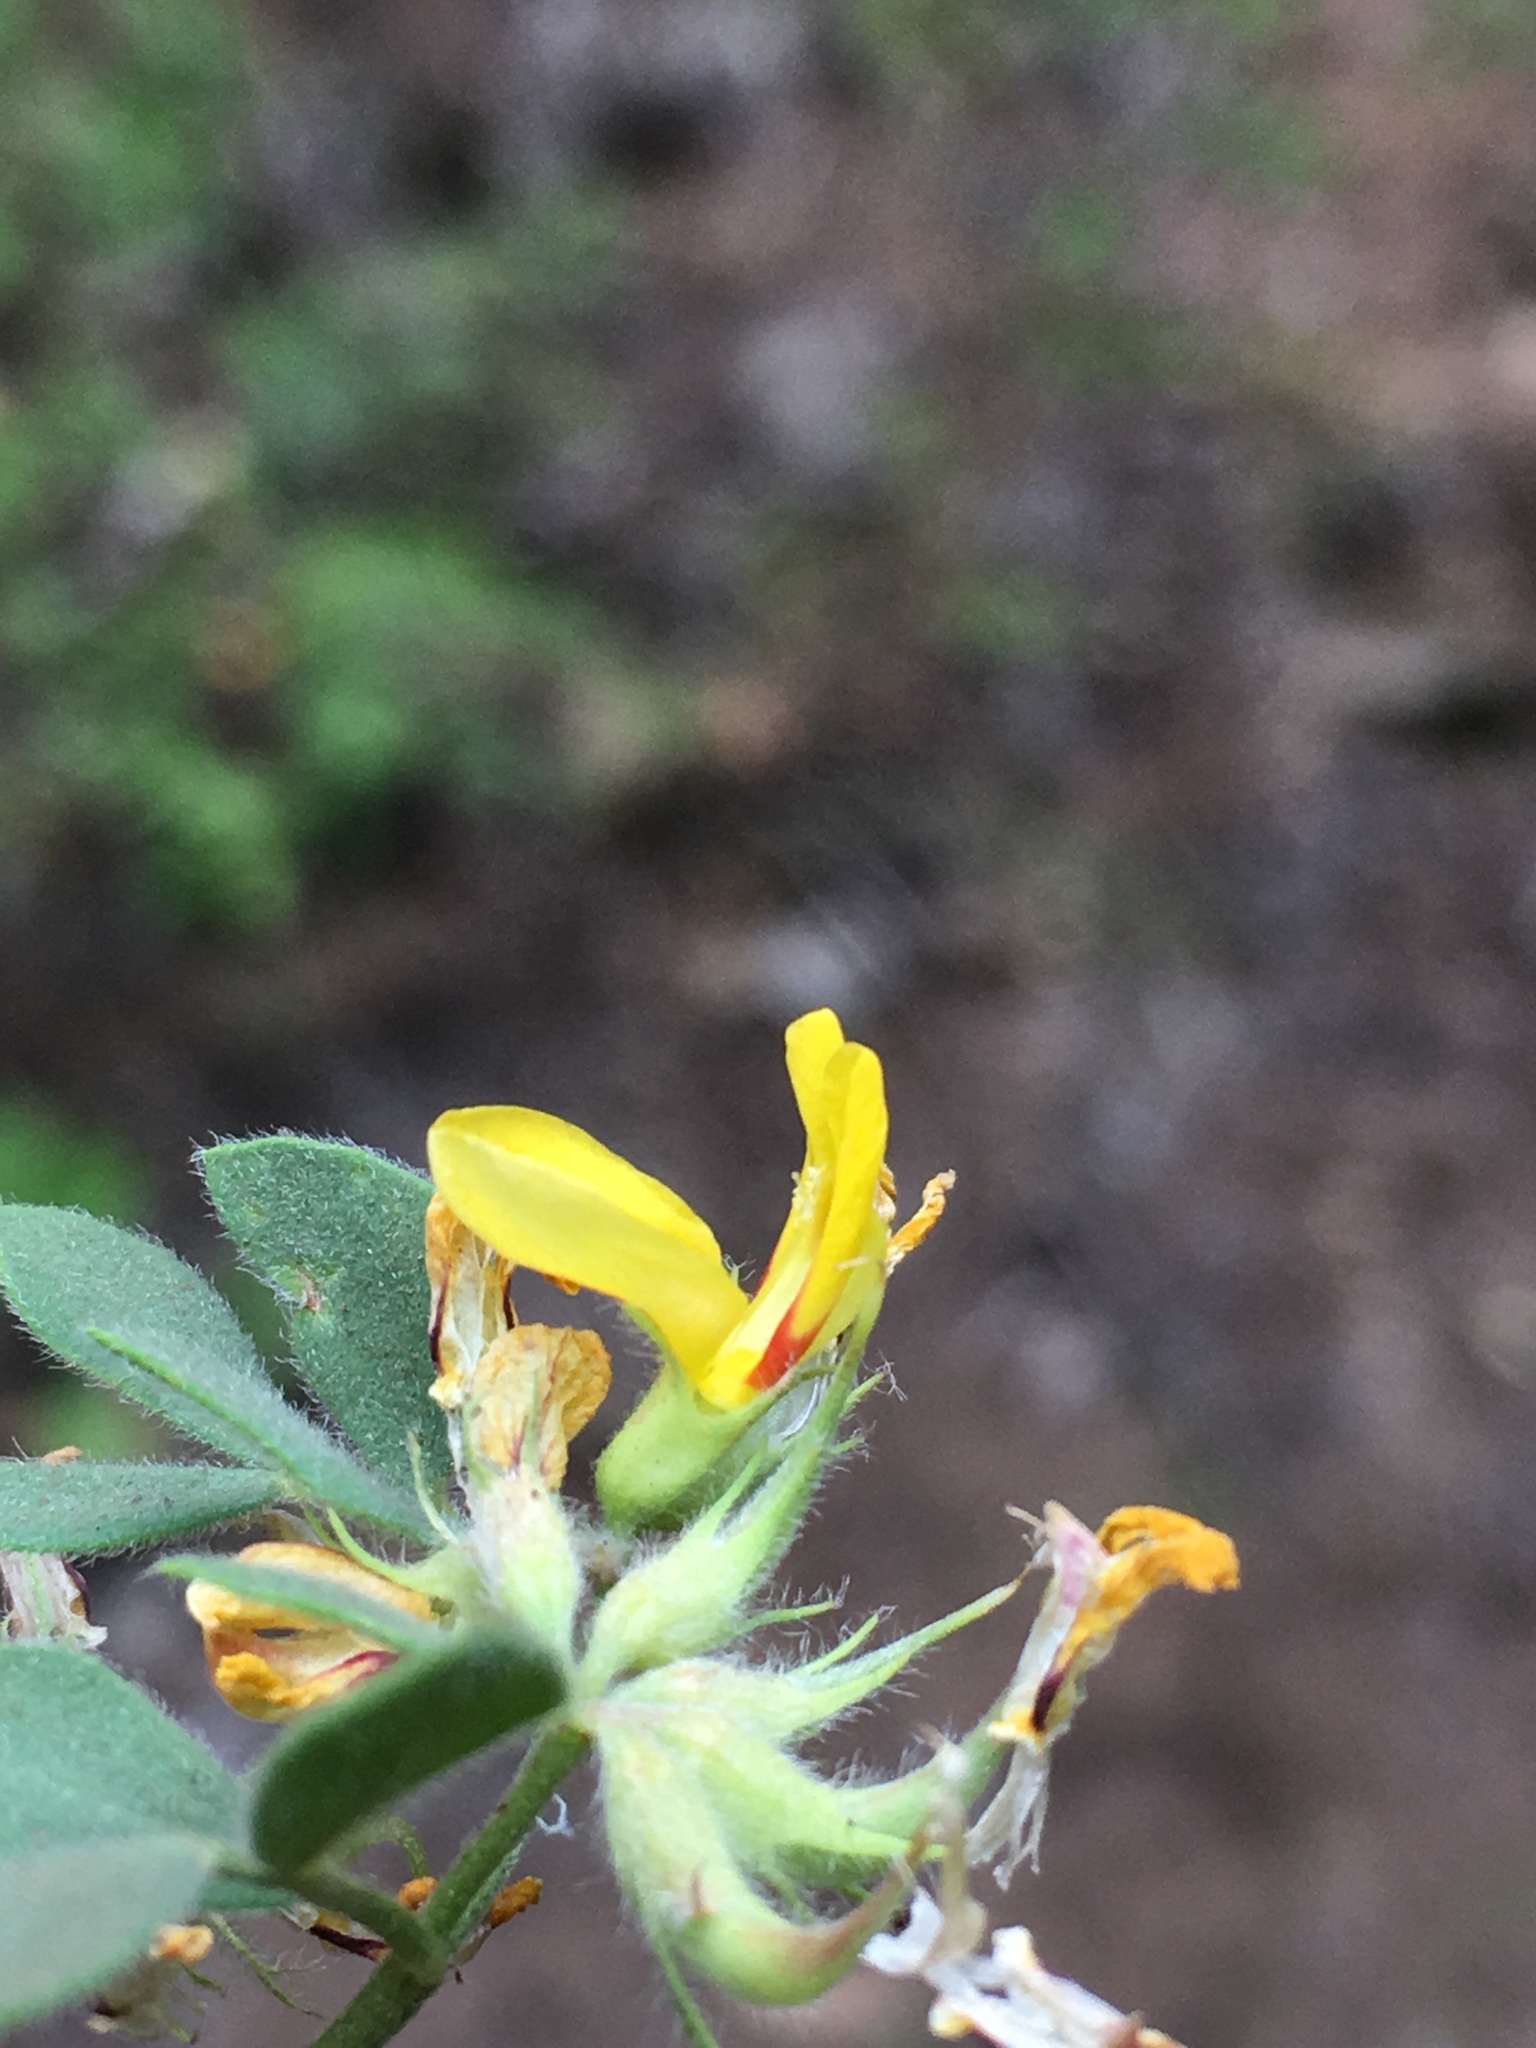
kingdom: Plantae
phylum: Tracheophyta
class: Magnoliopsida
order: Fabales
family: Fabaceae
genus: Acmispon
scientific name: Acmispon decumbens
